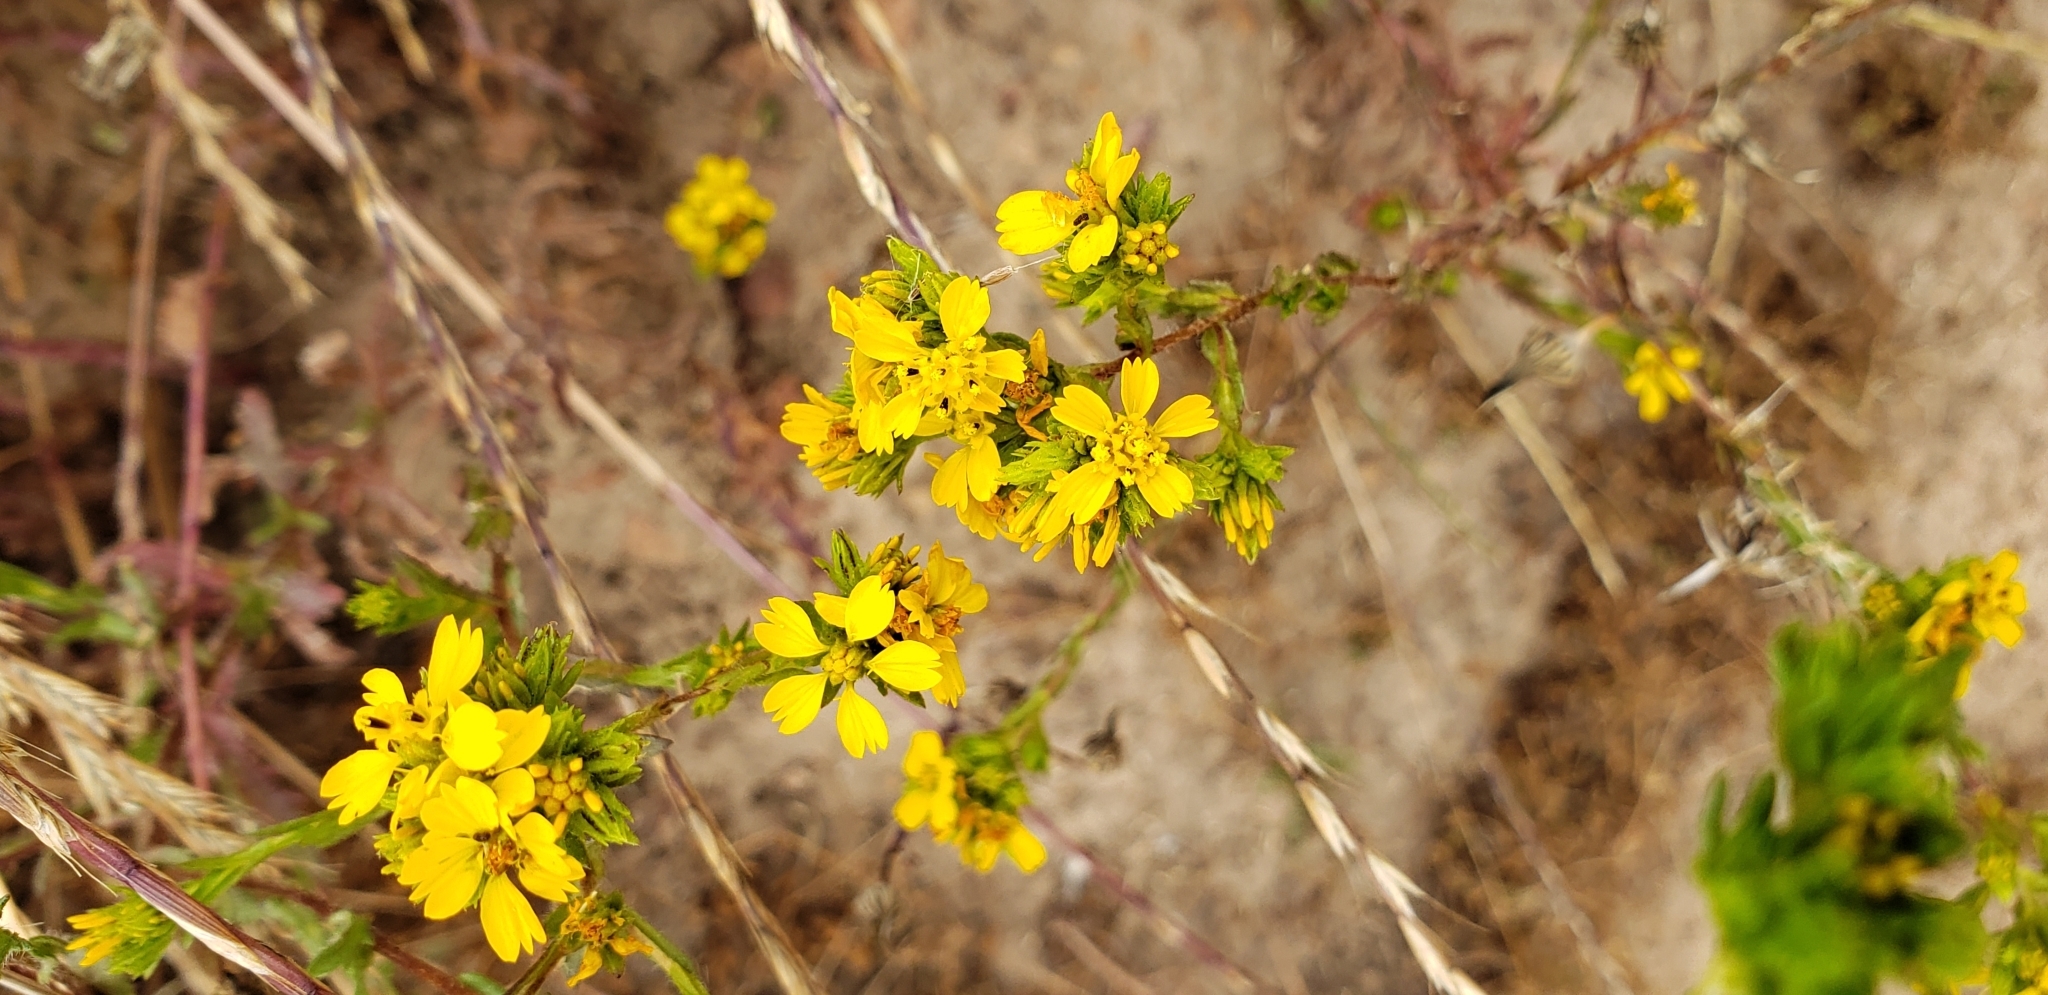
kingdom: Plantae
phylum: Tracheophyta
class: Magnoliopsida
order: Asterales
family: Asteraceae
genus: Deinandra
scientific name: Deinandra fasciculata
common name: Clustered tarweed
